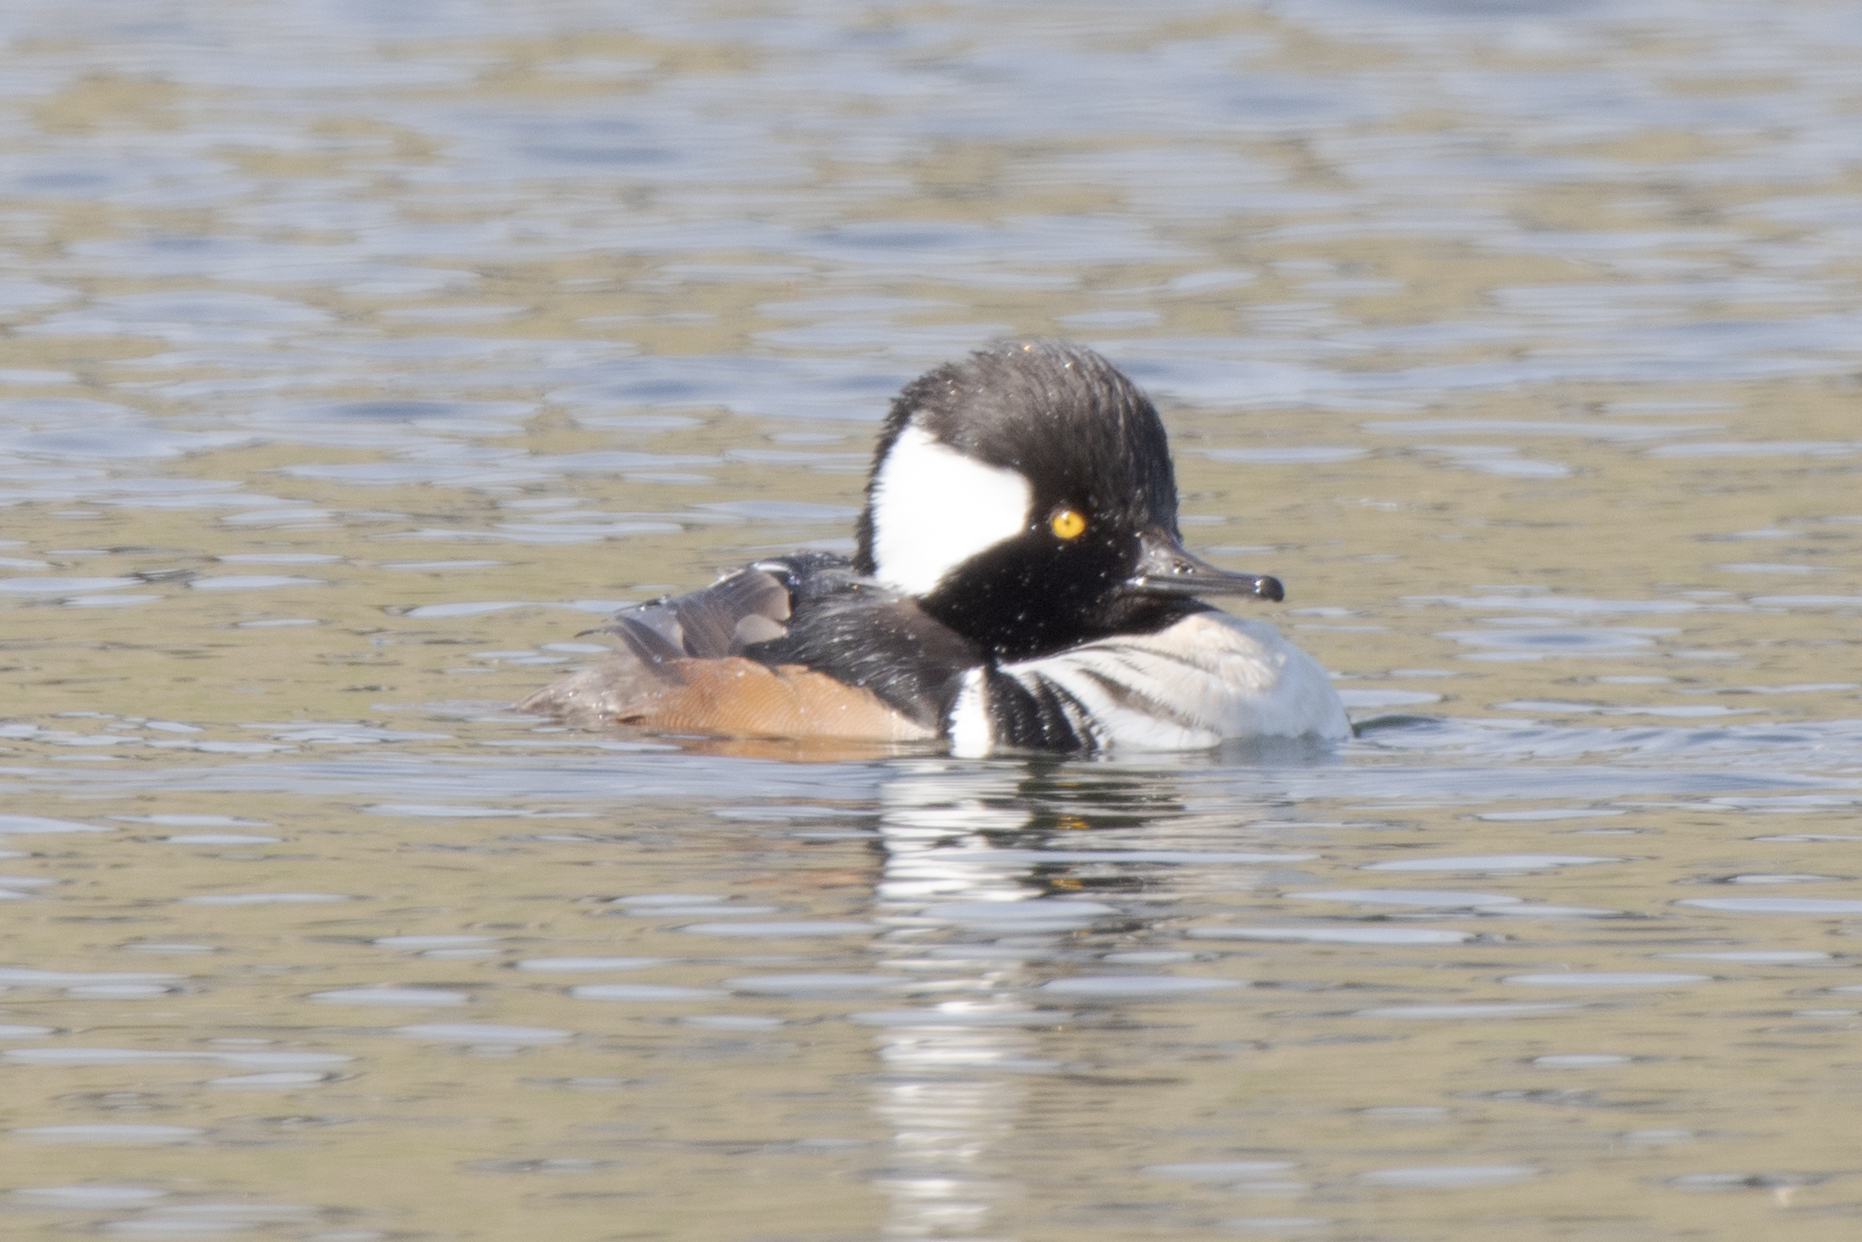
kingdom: Animalia
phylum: Chordata
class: Aves
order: Anseriformes
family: Anatidae
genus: Lophodytes
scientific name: Lophodytes cucullatus
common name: Hooded merganser
